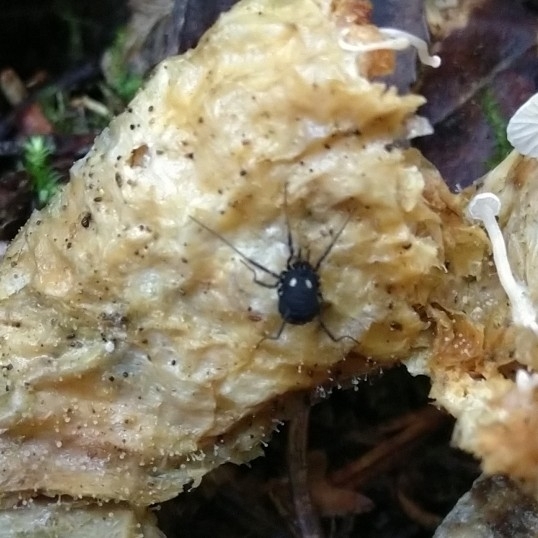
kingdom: Animalia
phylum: Arthropoda
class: Arachnida
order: Opiliones
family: Nemastomatidae
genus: Nemastoma
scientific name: Nemastoma lugubre
